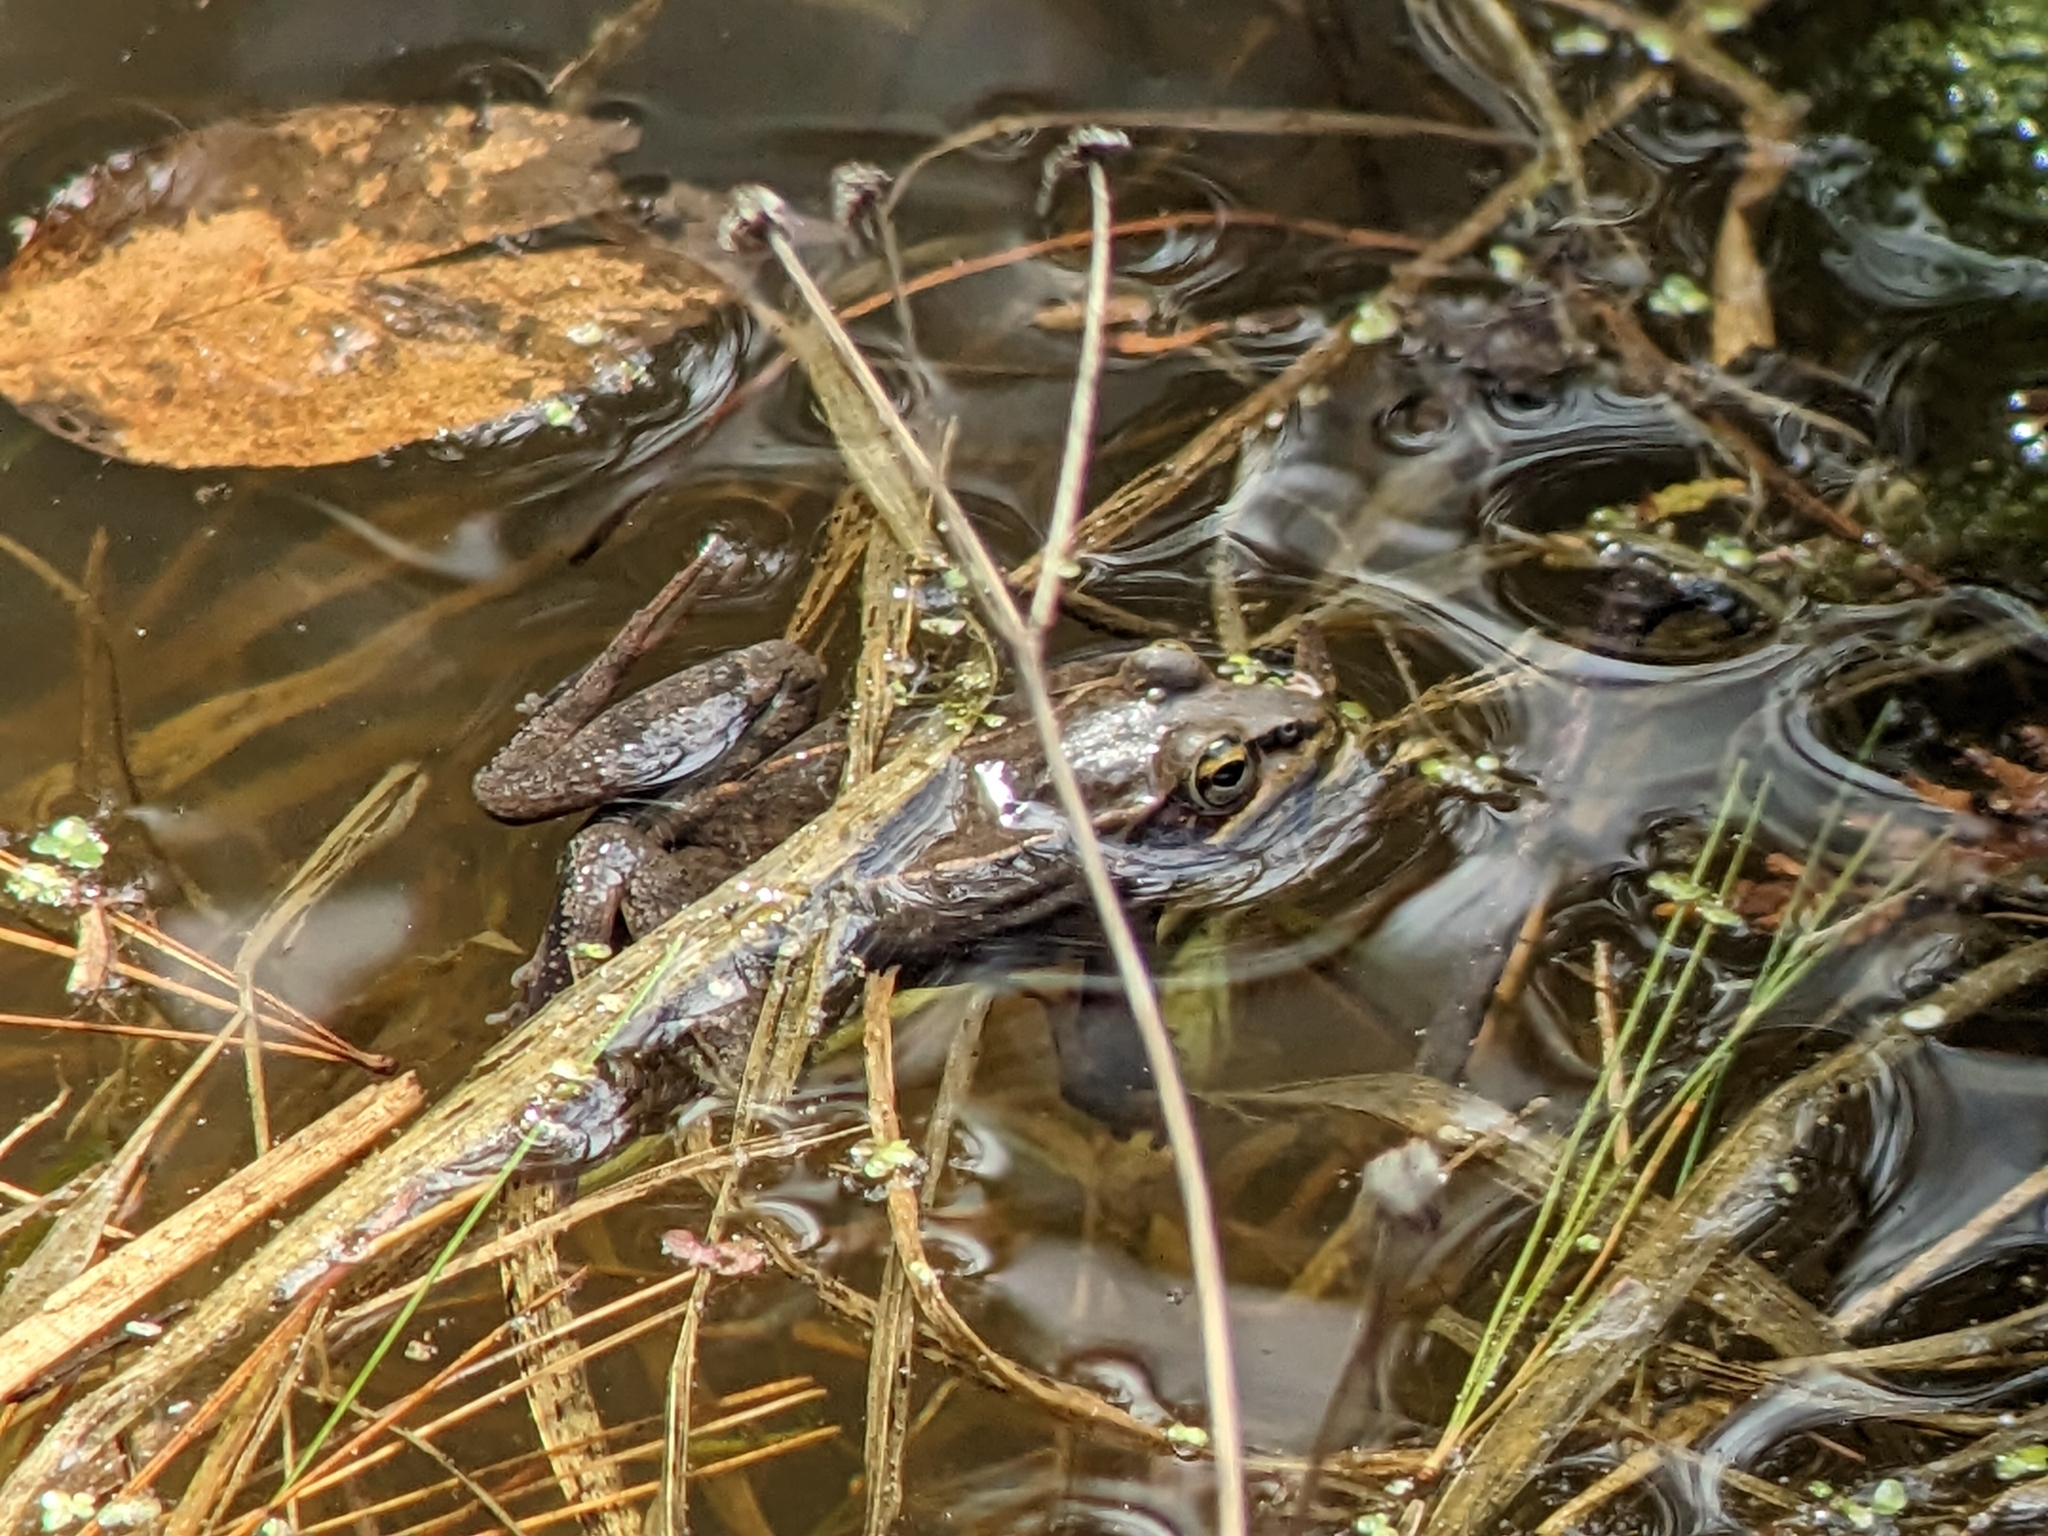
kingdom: Animalia
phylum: Chordata
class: Amphibia
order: Anura
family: Ranidae
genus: Lithobates
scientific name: Lithobates sylvaticus
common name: Wood frog
